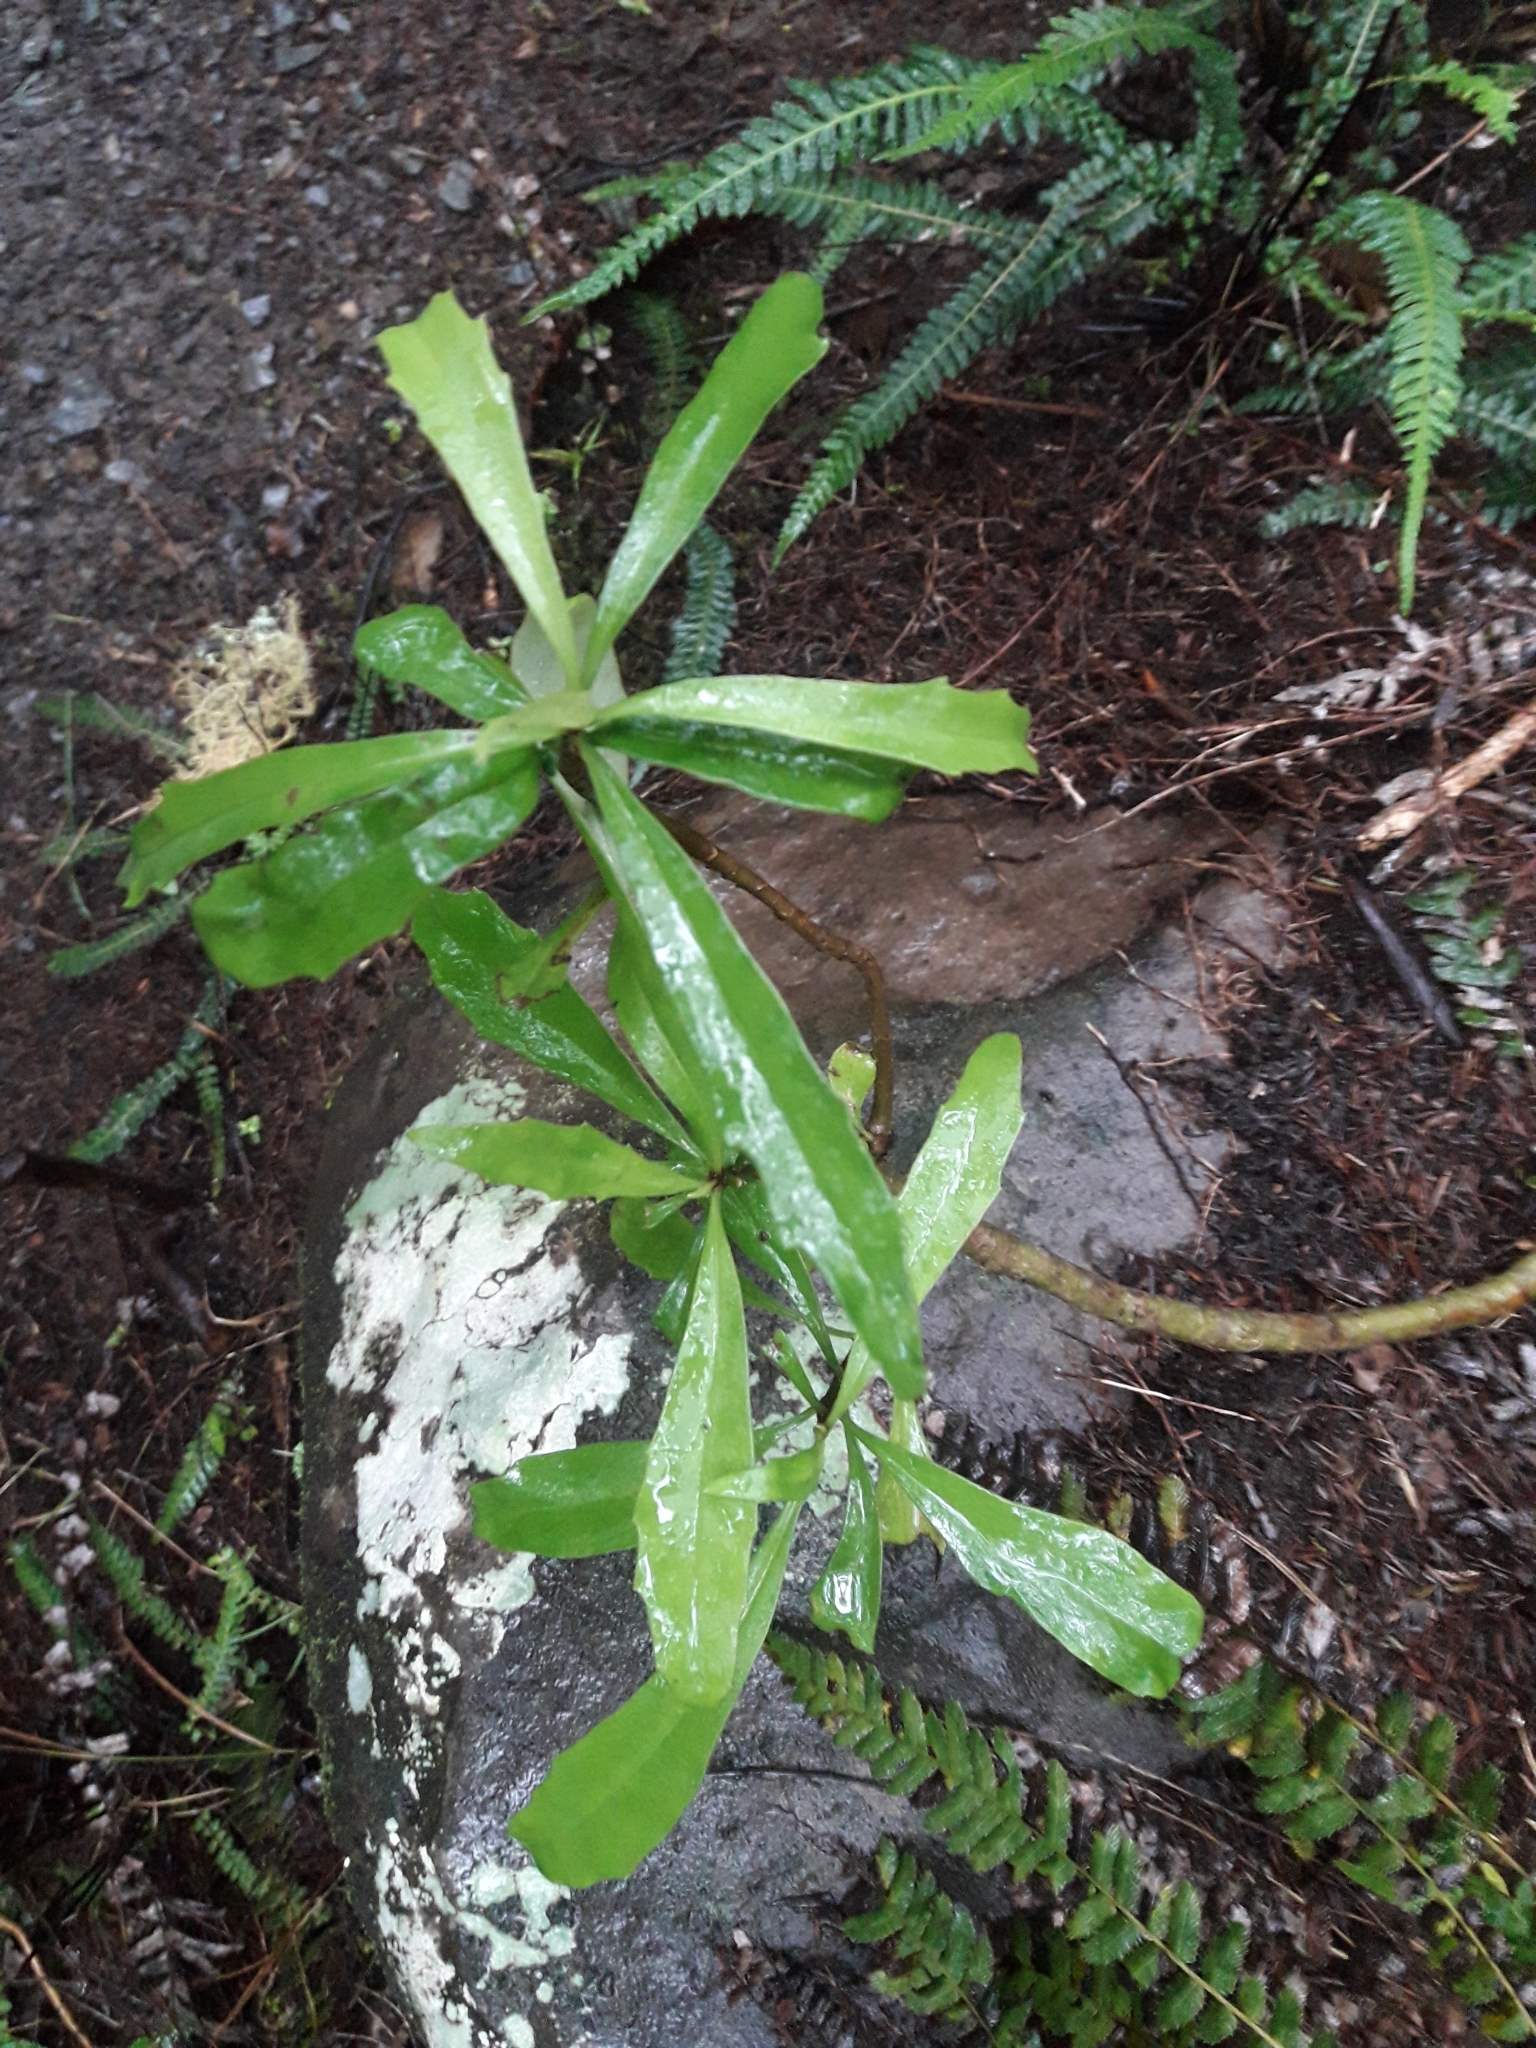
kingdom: Plantae
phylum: Tracheophyta
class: Magnoliopsida
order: Asterales
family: Asteraceae
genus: Brachyglottis
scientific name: Brachyglottis kirkii
